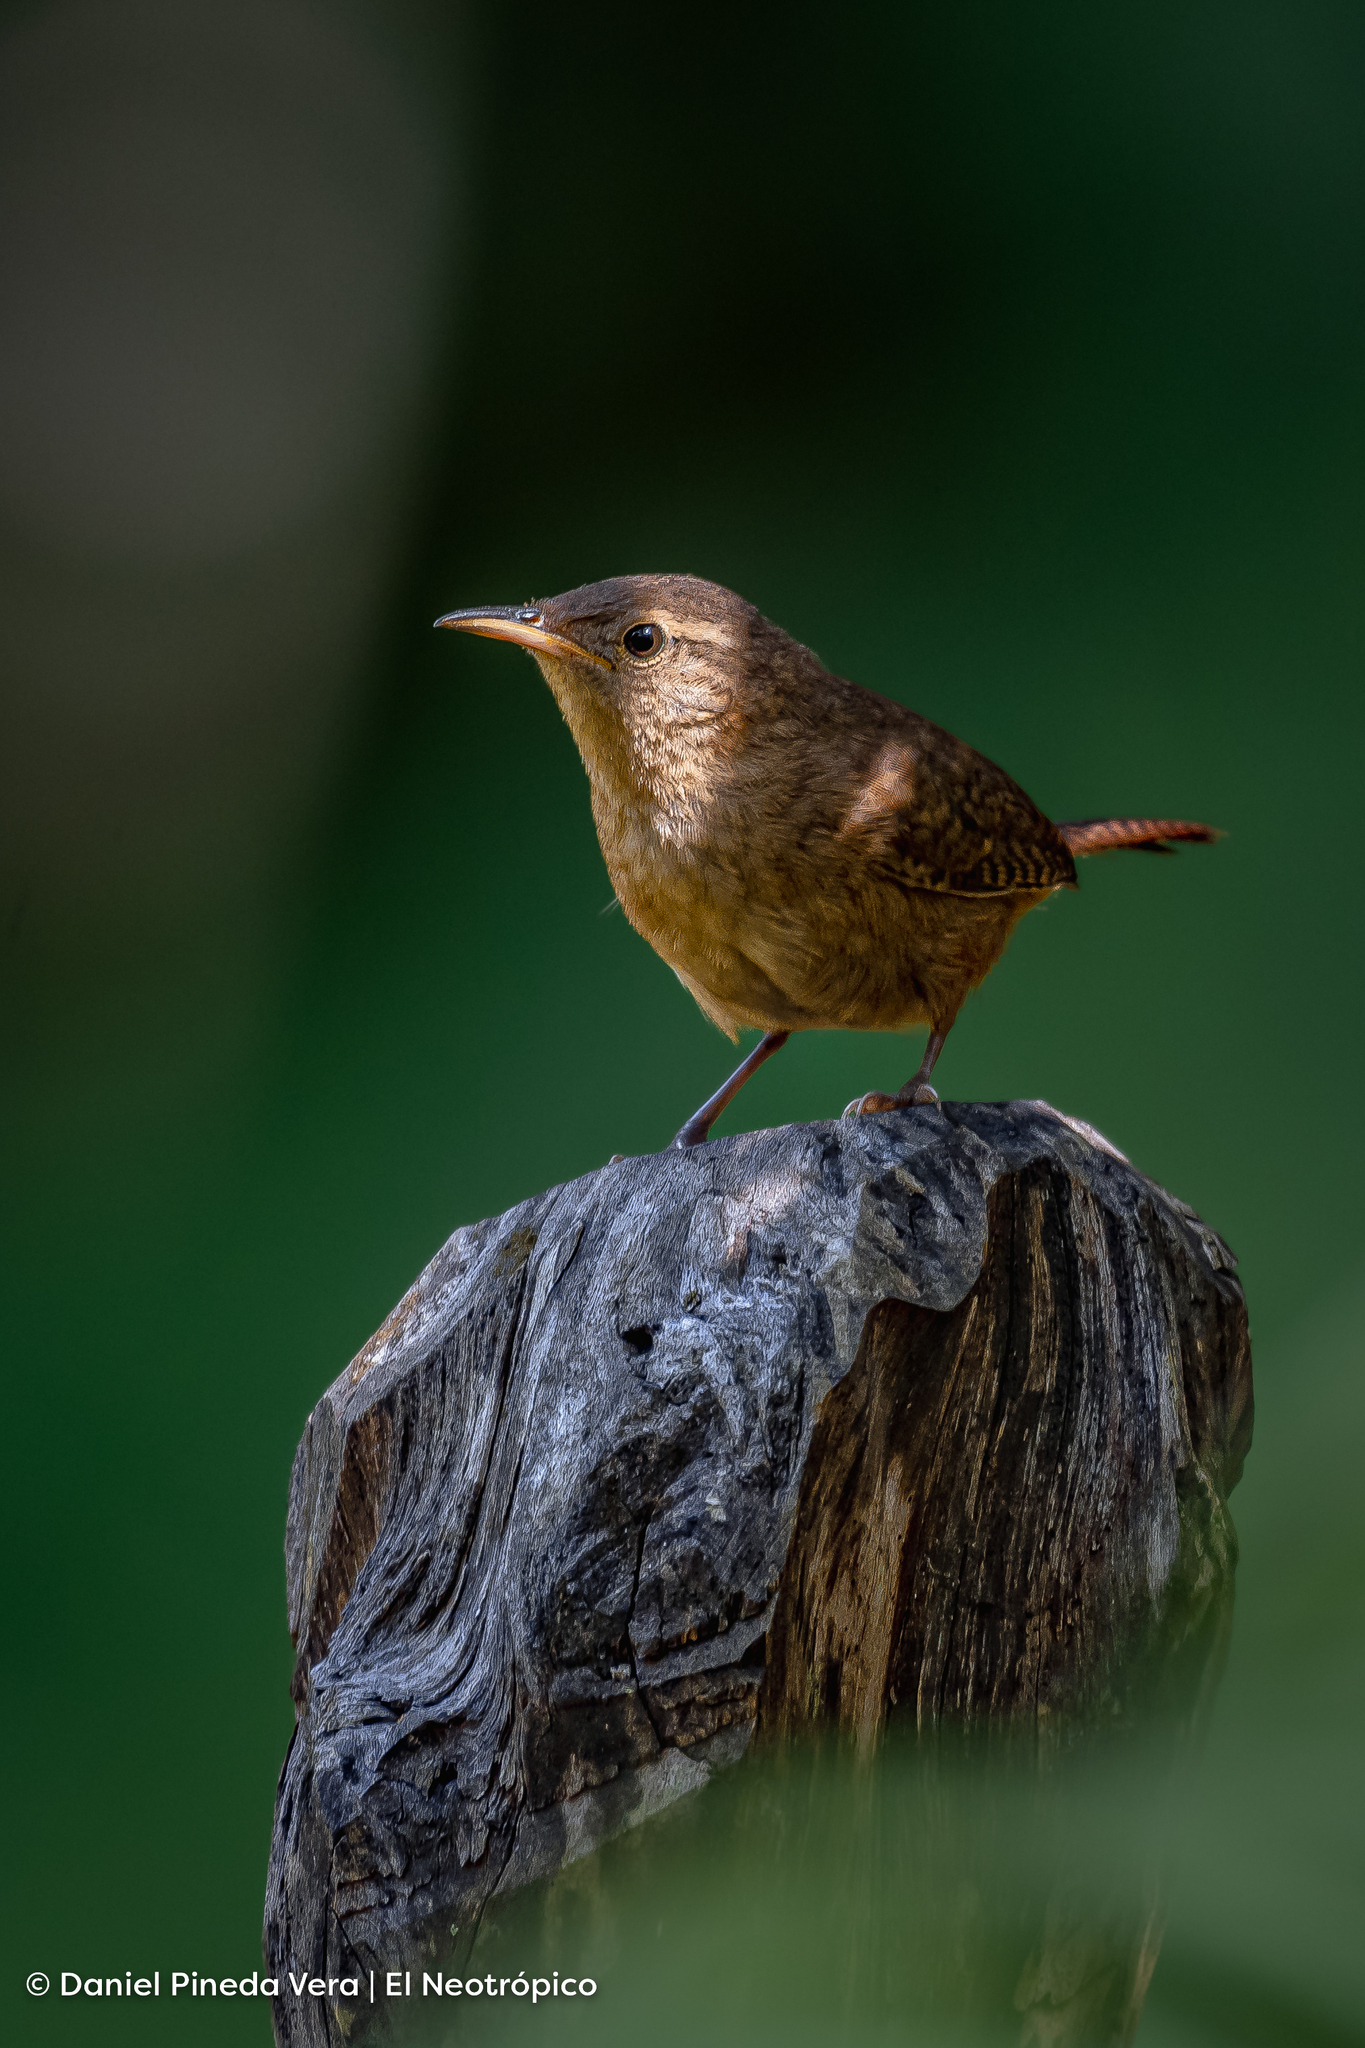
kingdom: Animalia
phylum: Chordata
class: Aves
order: Passeriformes
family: Troglodytidae
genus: Troglodytes
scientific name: Troglodytes aedon
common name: House wren
